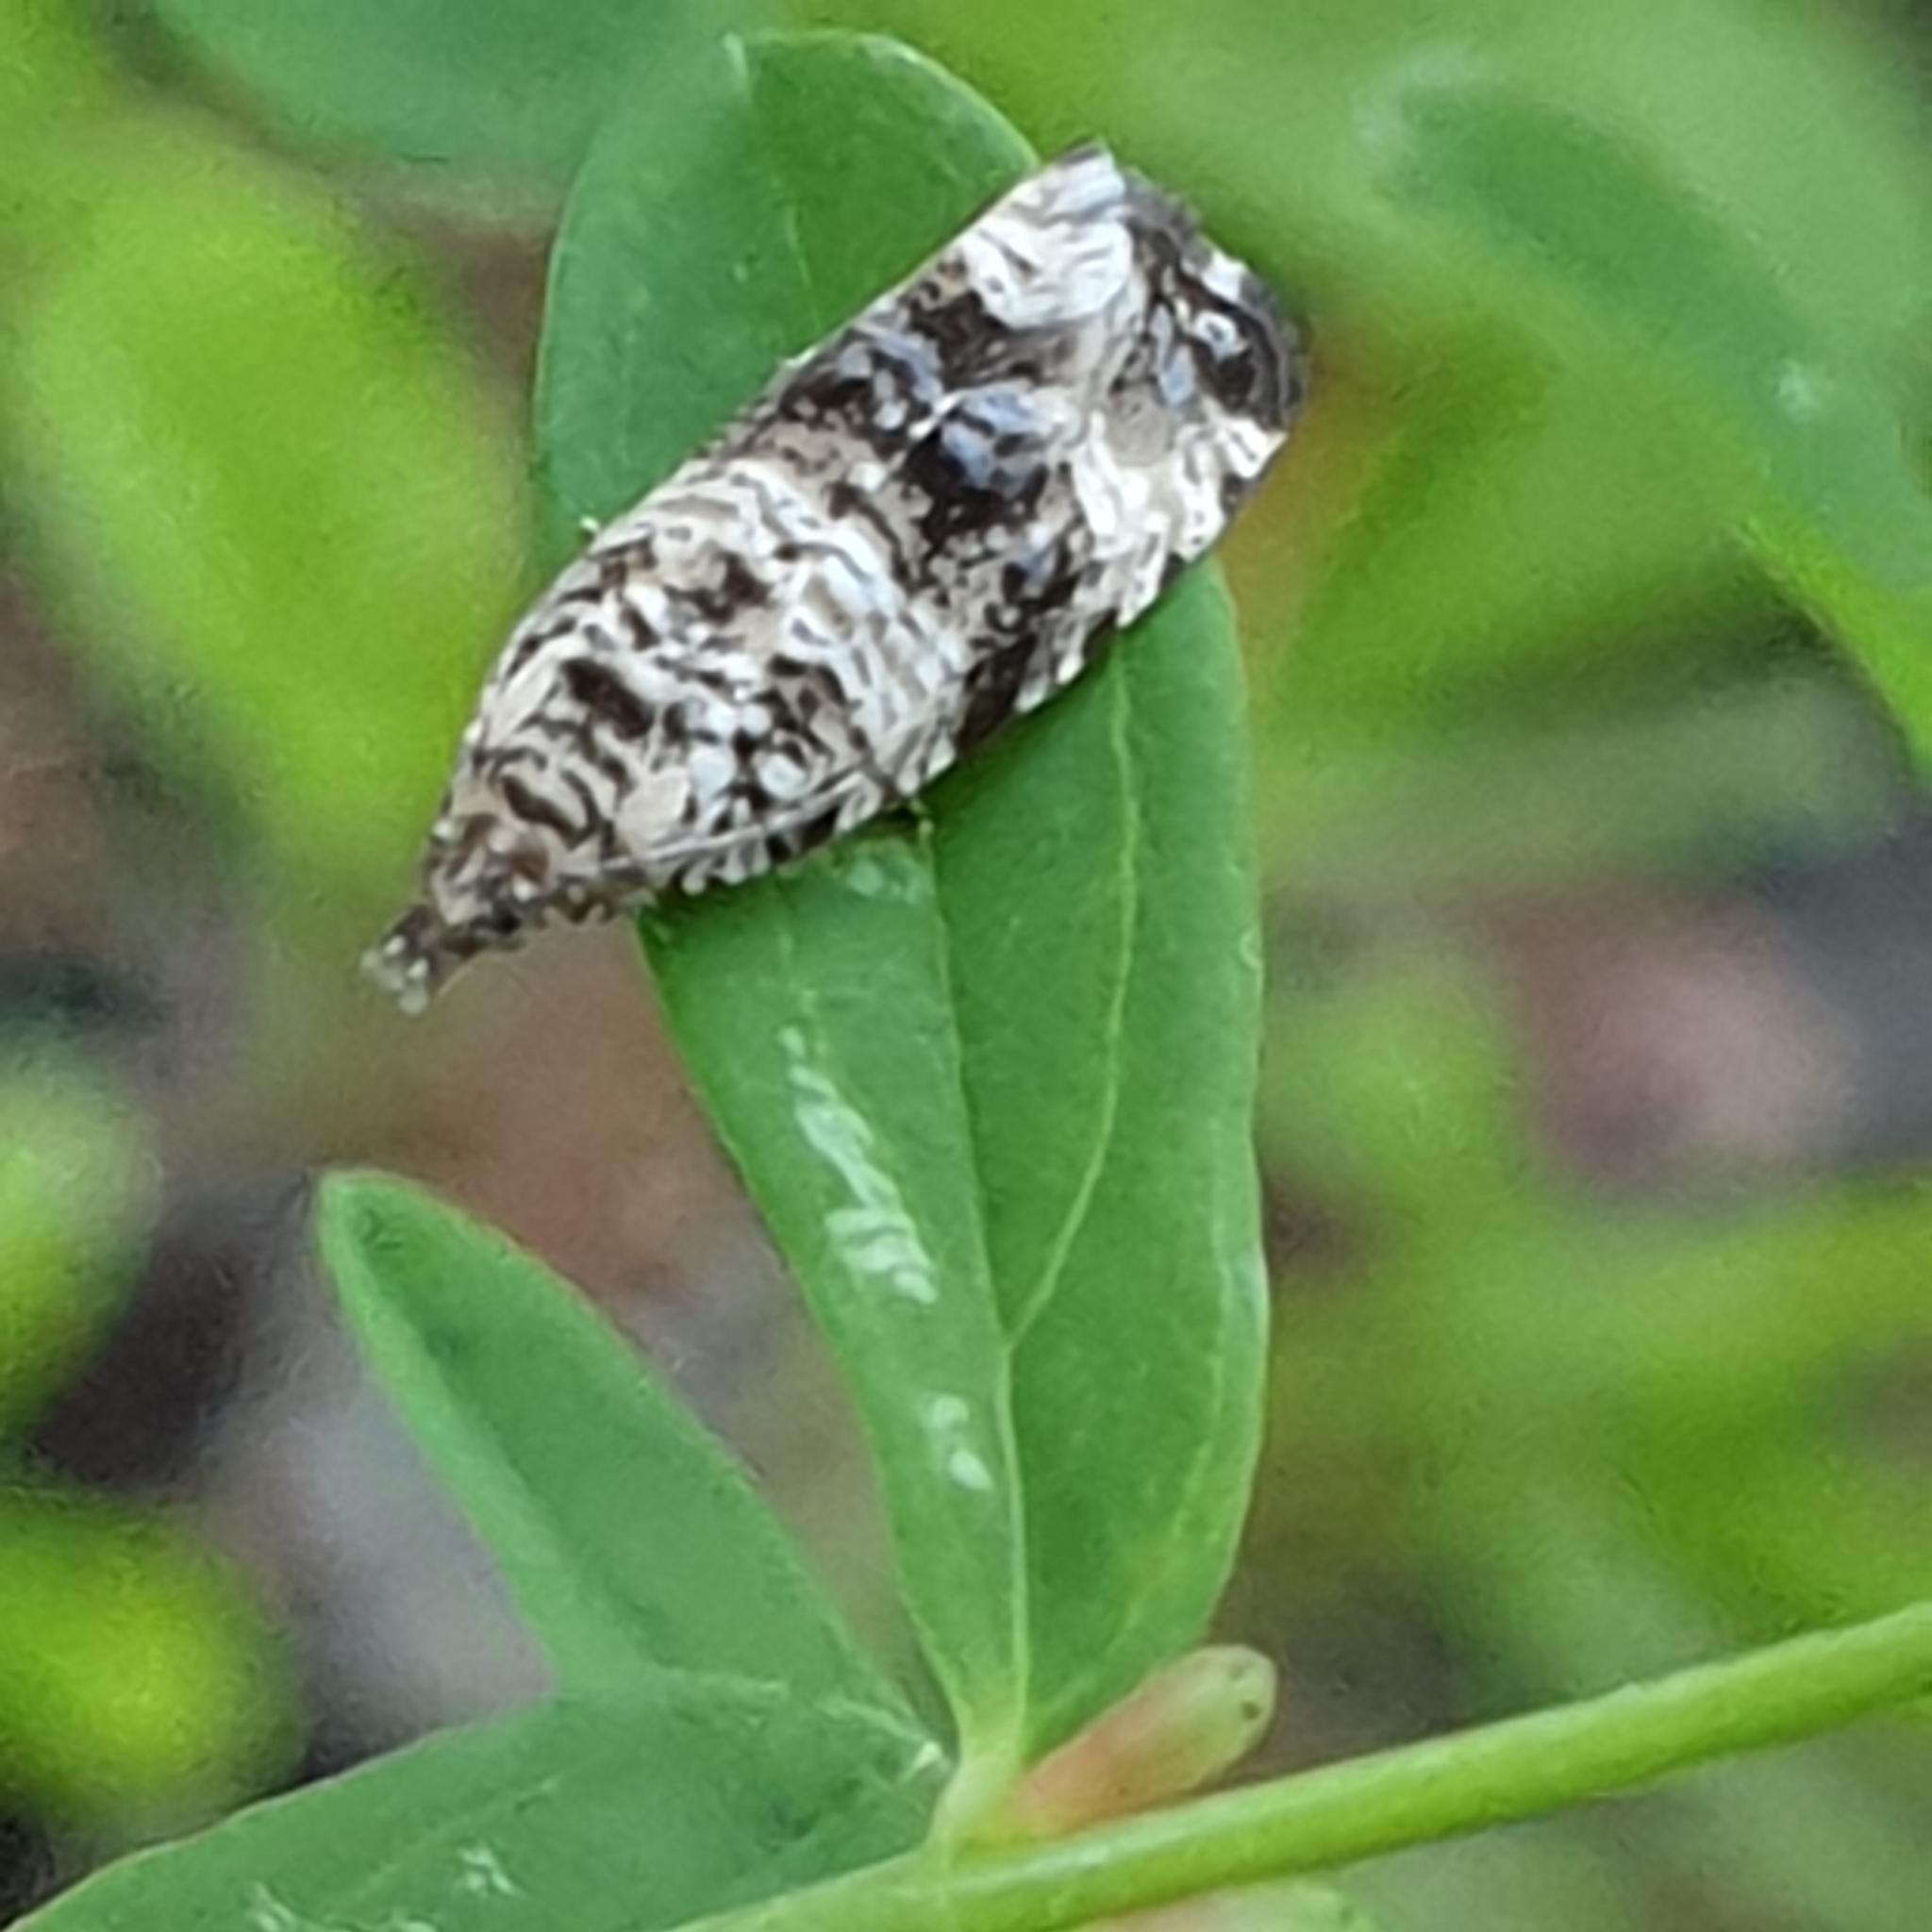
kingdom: Animalia
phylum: Arthropoda
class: Insecta
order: Lepidoptera
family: Tortricidae
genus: Syricoris
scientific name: Syricoris lacunana
